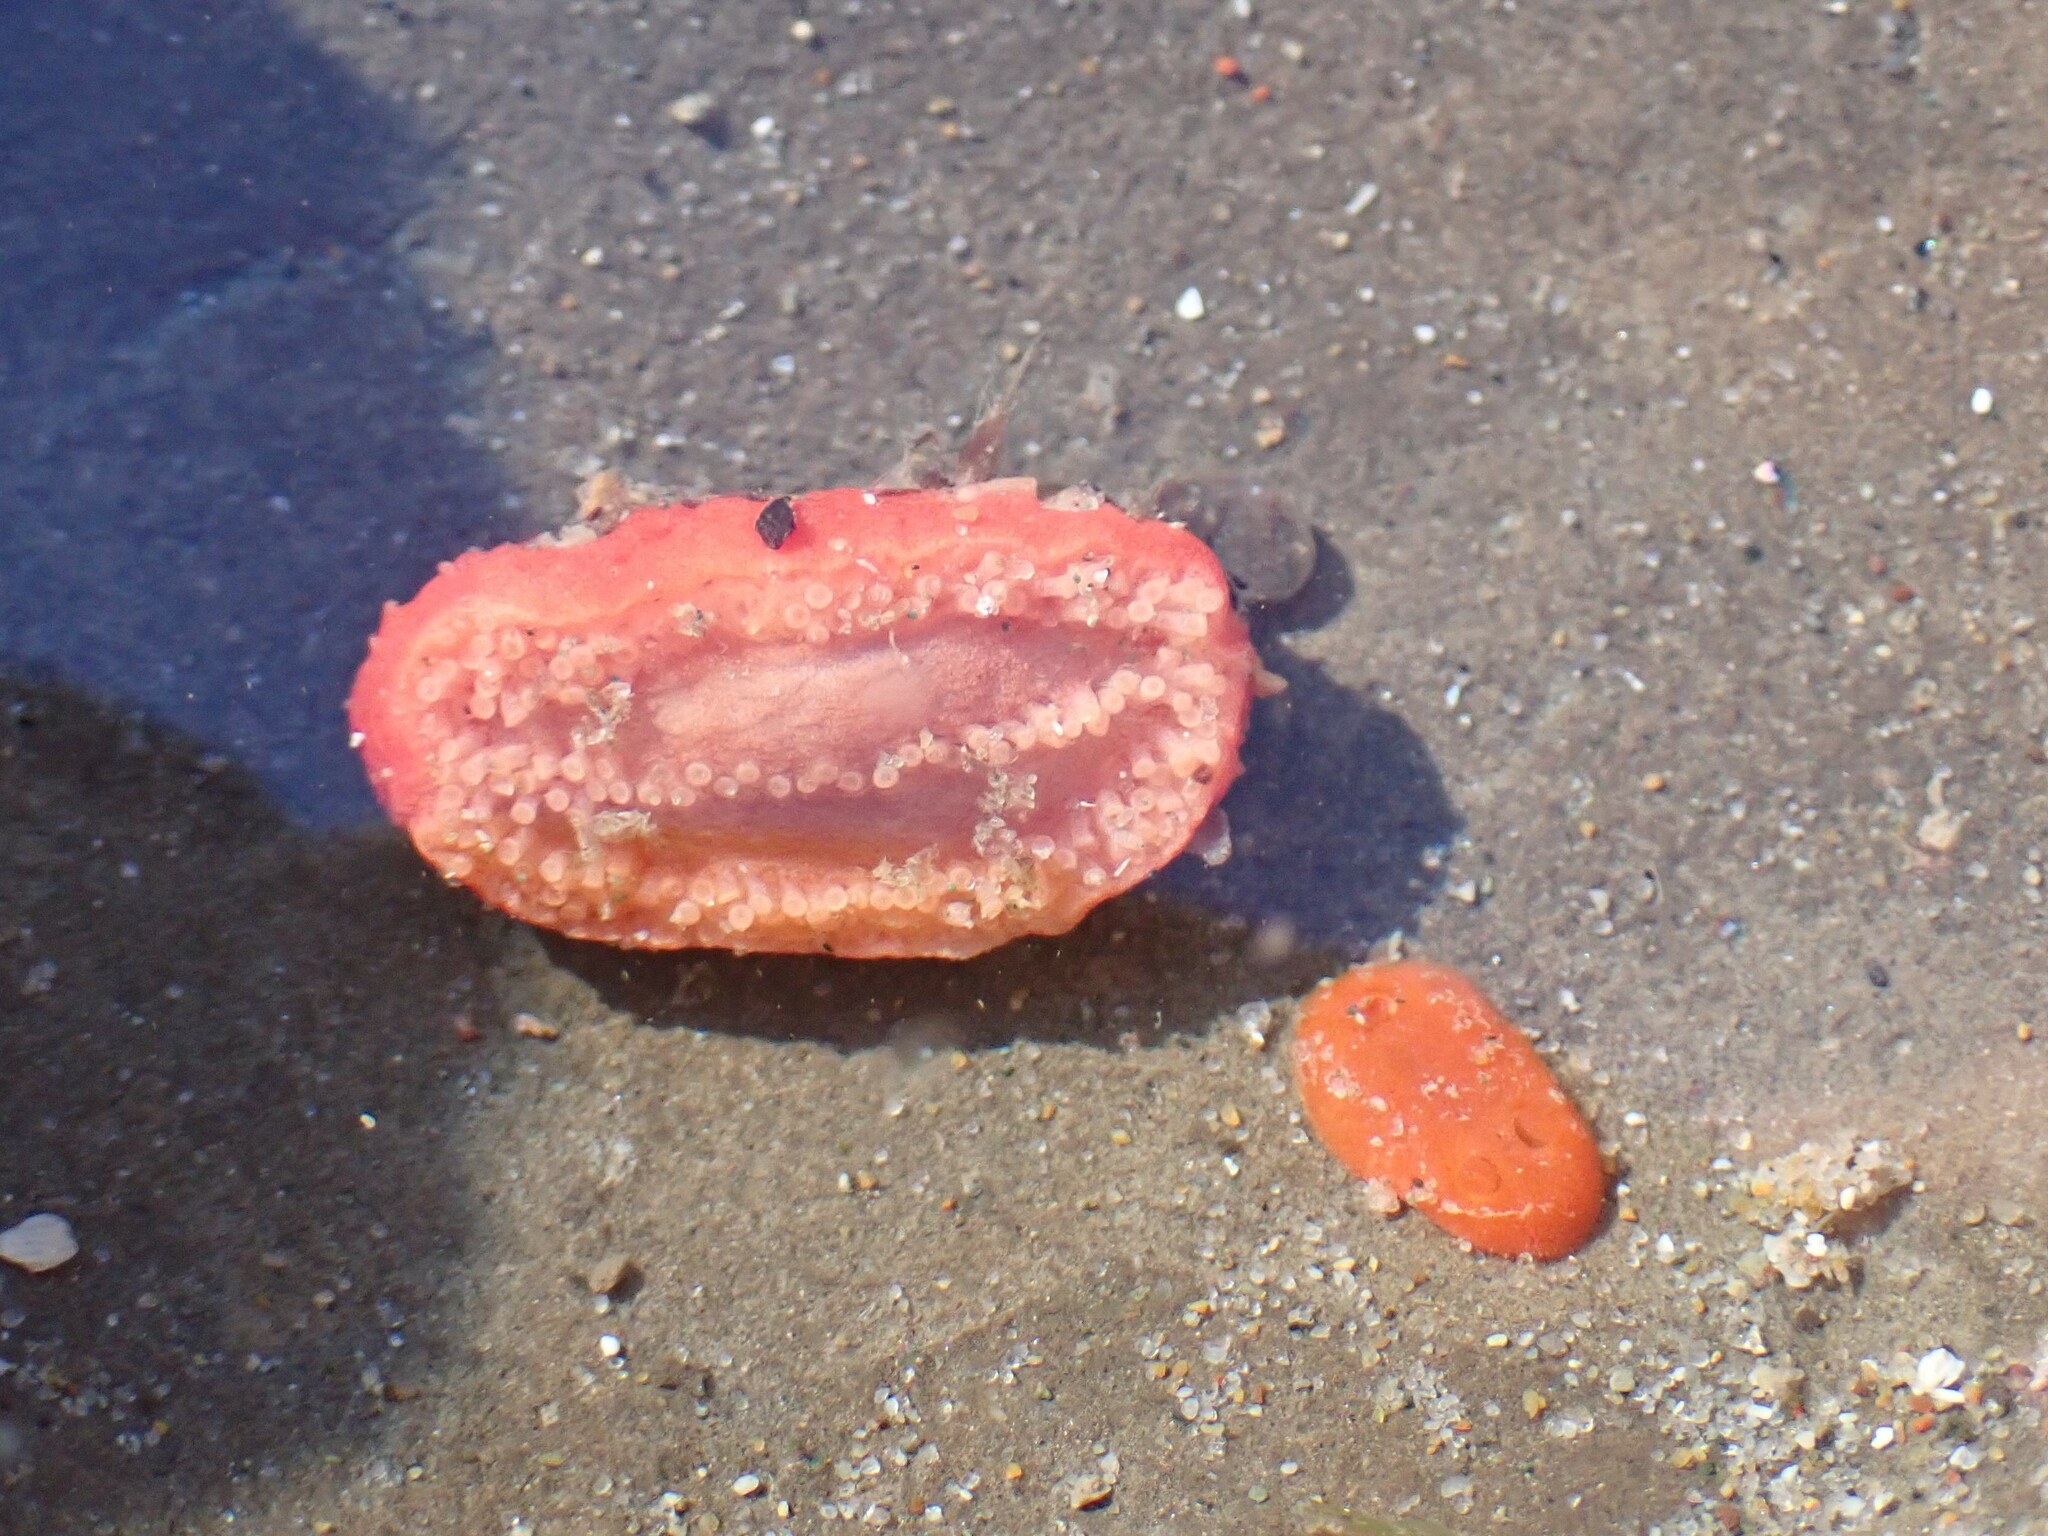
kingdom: Animalia
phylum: Echinodermata
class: Holothuroidea
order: Dendrochirotida
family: Psolidae
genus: Lissothuria
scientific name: Lissothuria nutriens
